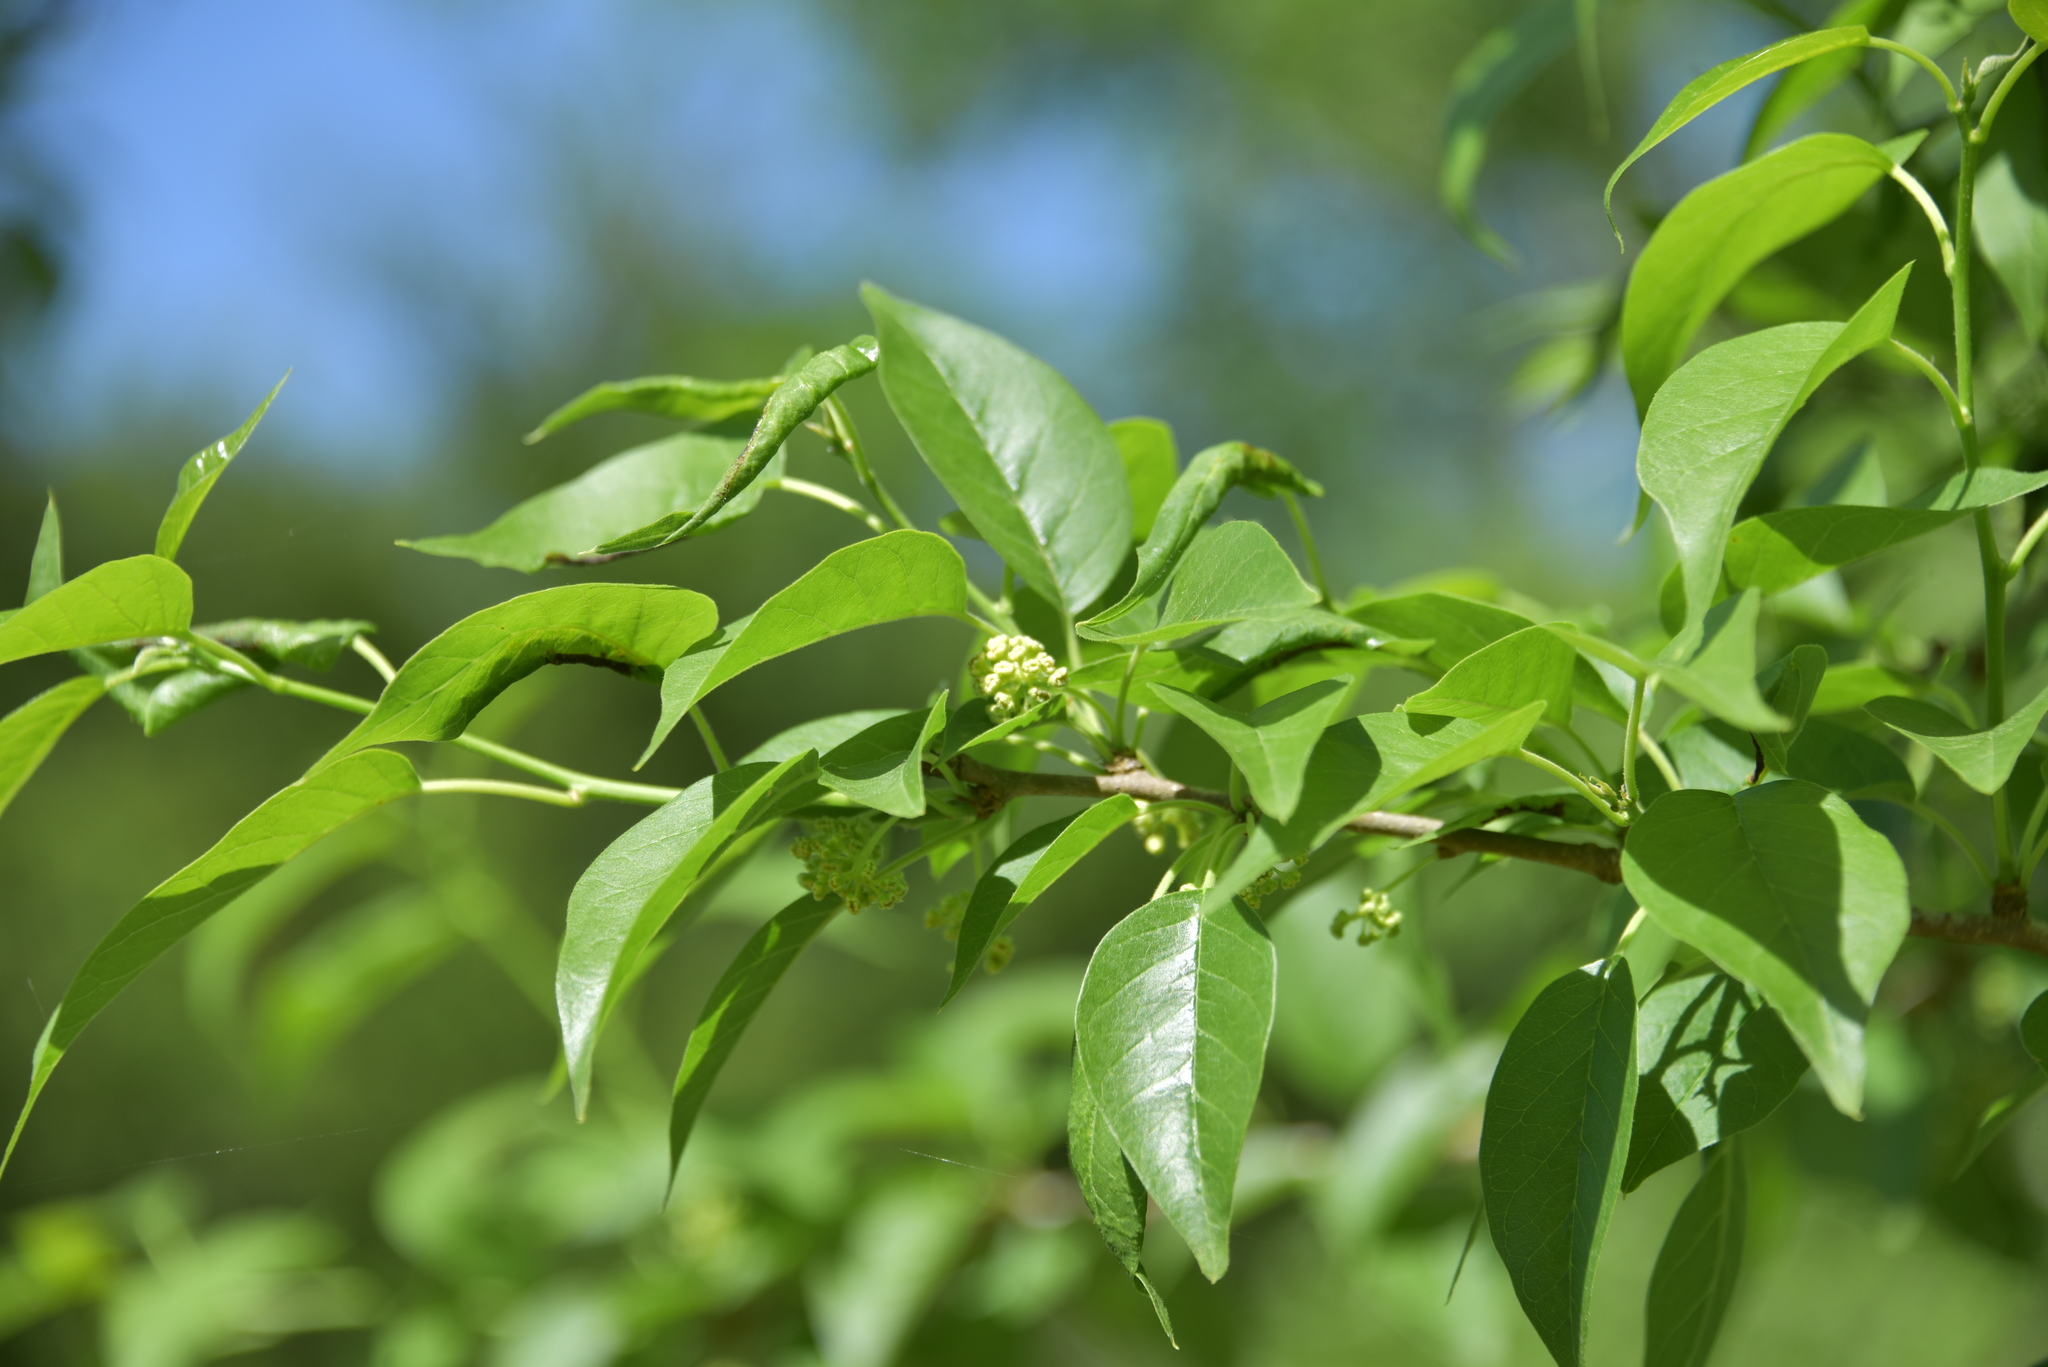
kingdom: Plantae
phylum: Tracheophyta
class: Magnoliopsida
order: Rosales
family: Moraceae
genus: Maclura
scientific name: Maclura pomifera
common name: Osage-orange
